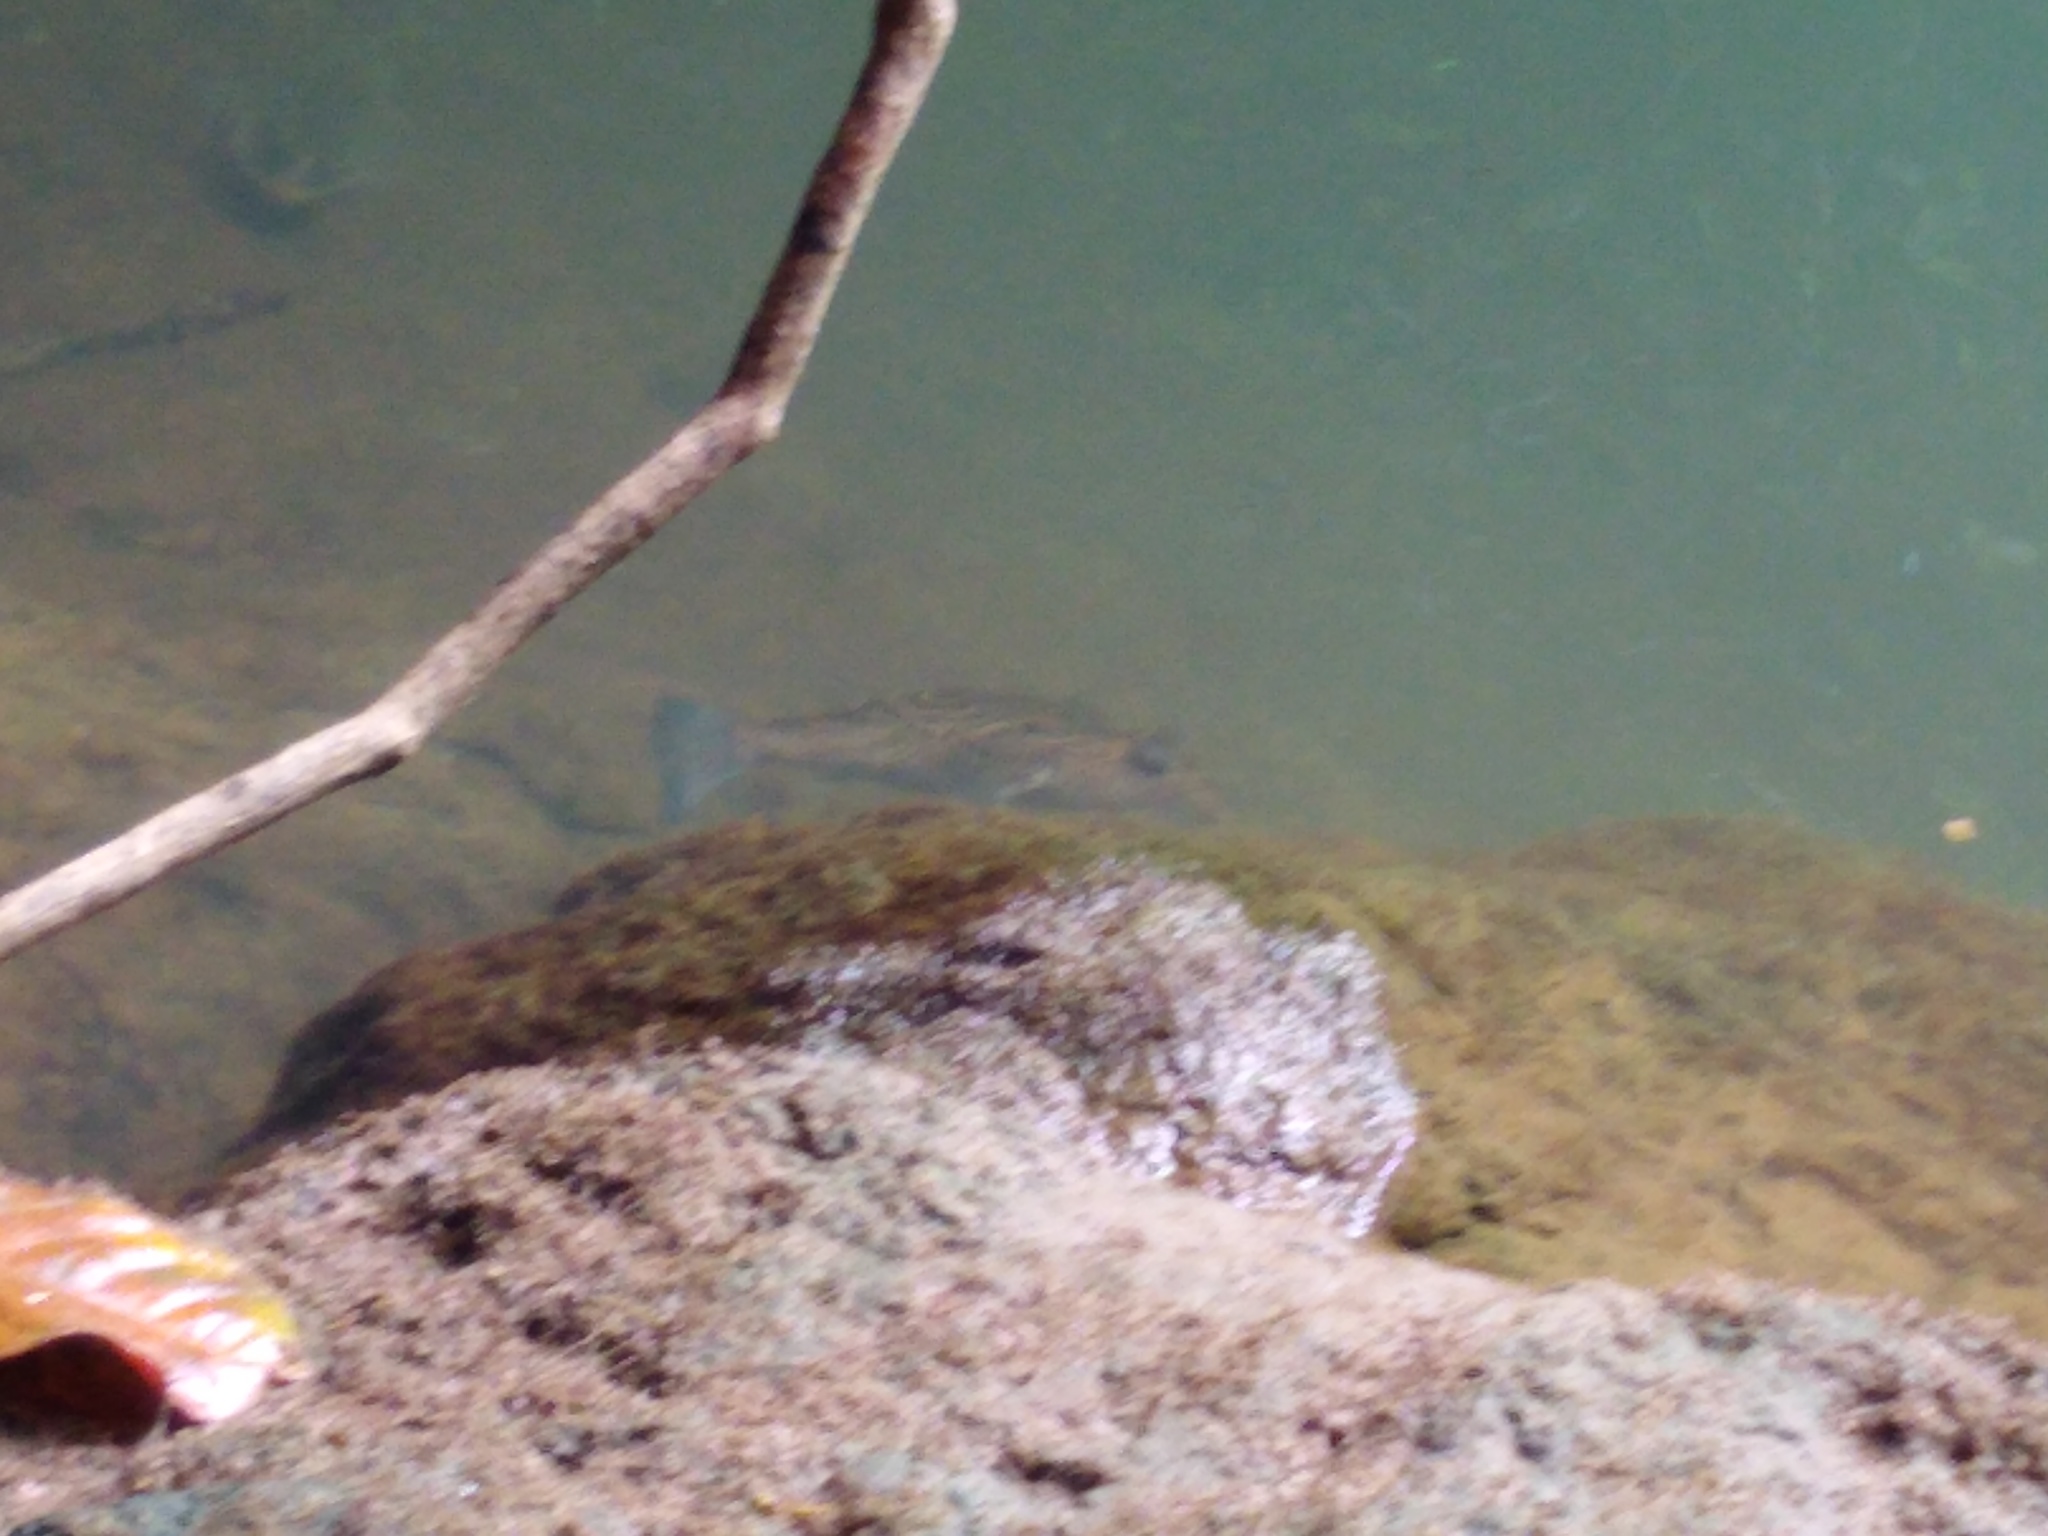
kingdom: Animalia
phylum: Chordata
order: Tetraodontiformes
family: Tetraodontidae
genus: Sphoeroides
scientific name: Sphoeroides rosenblatti
